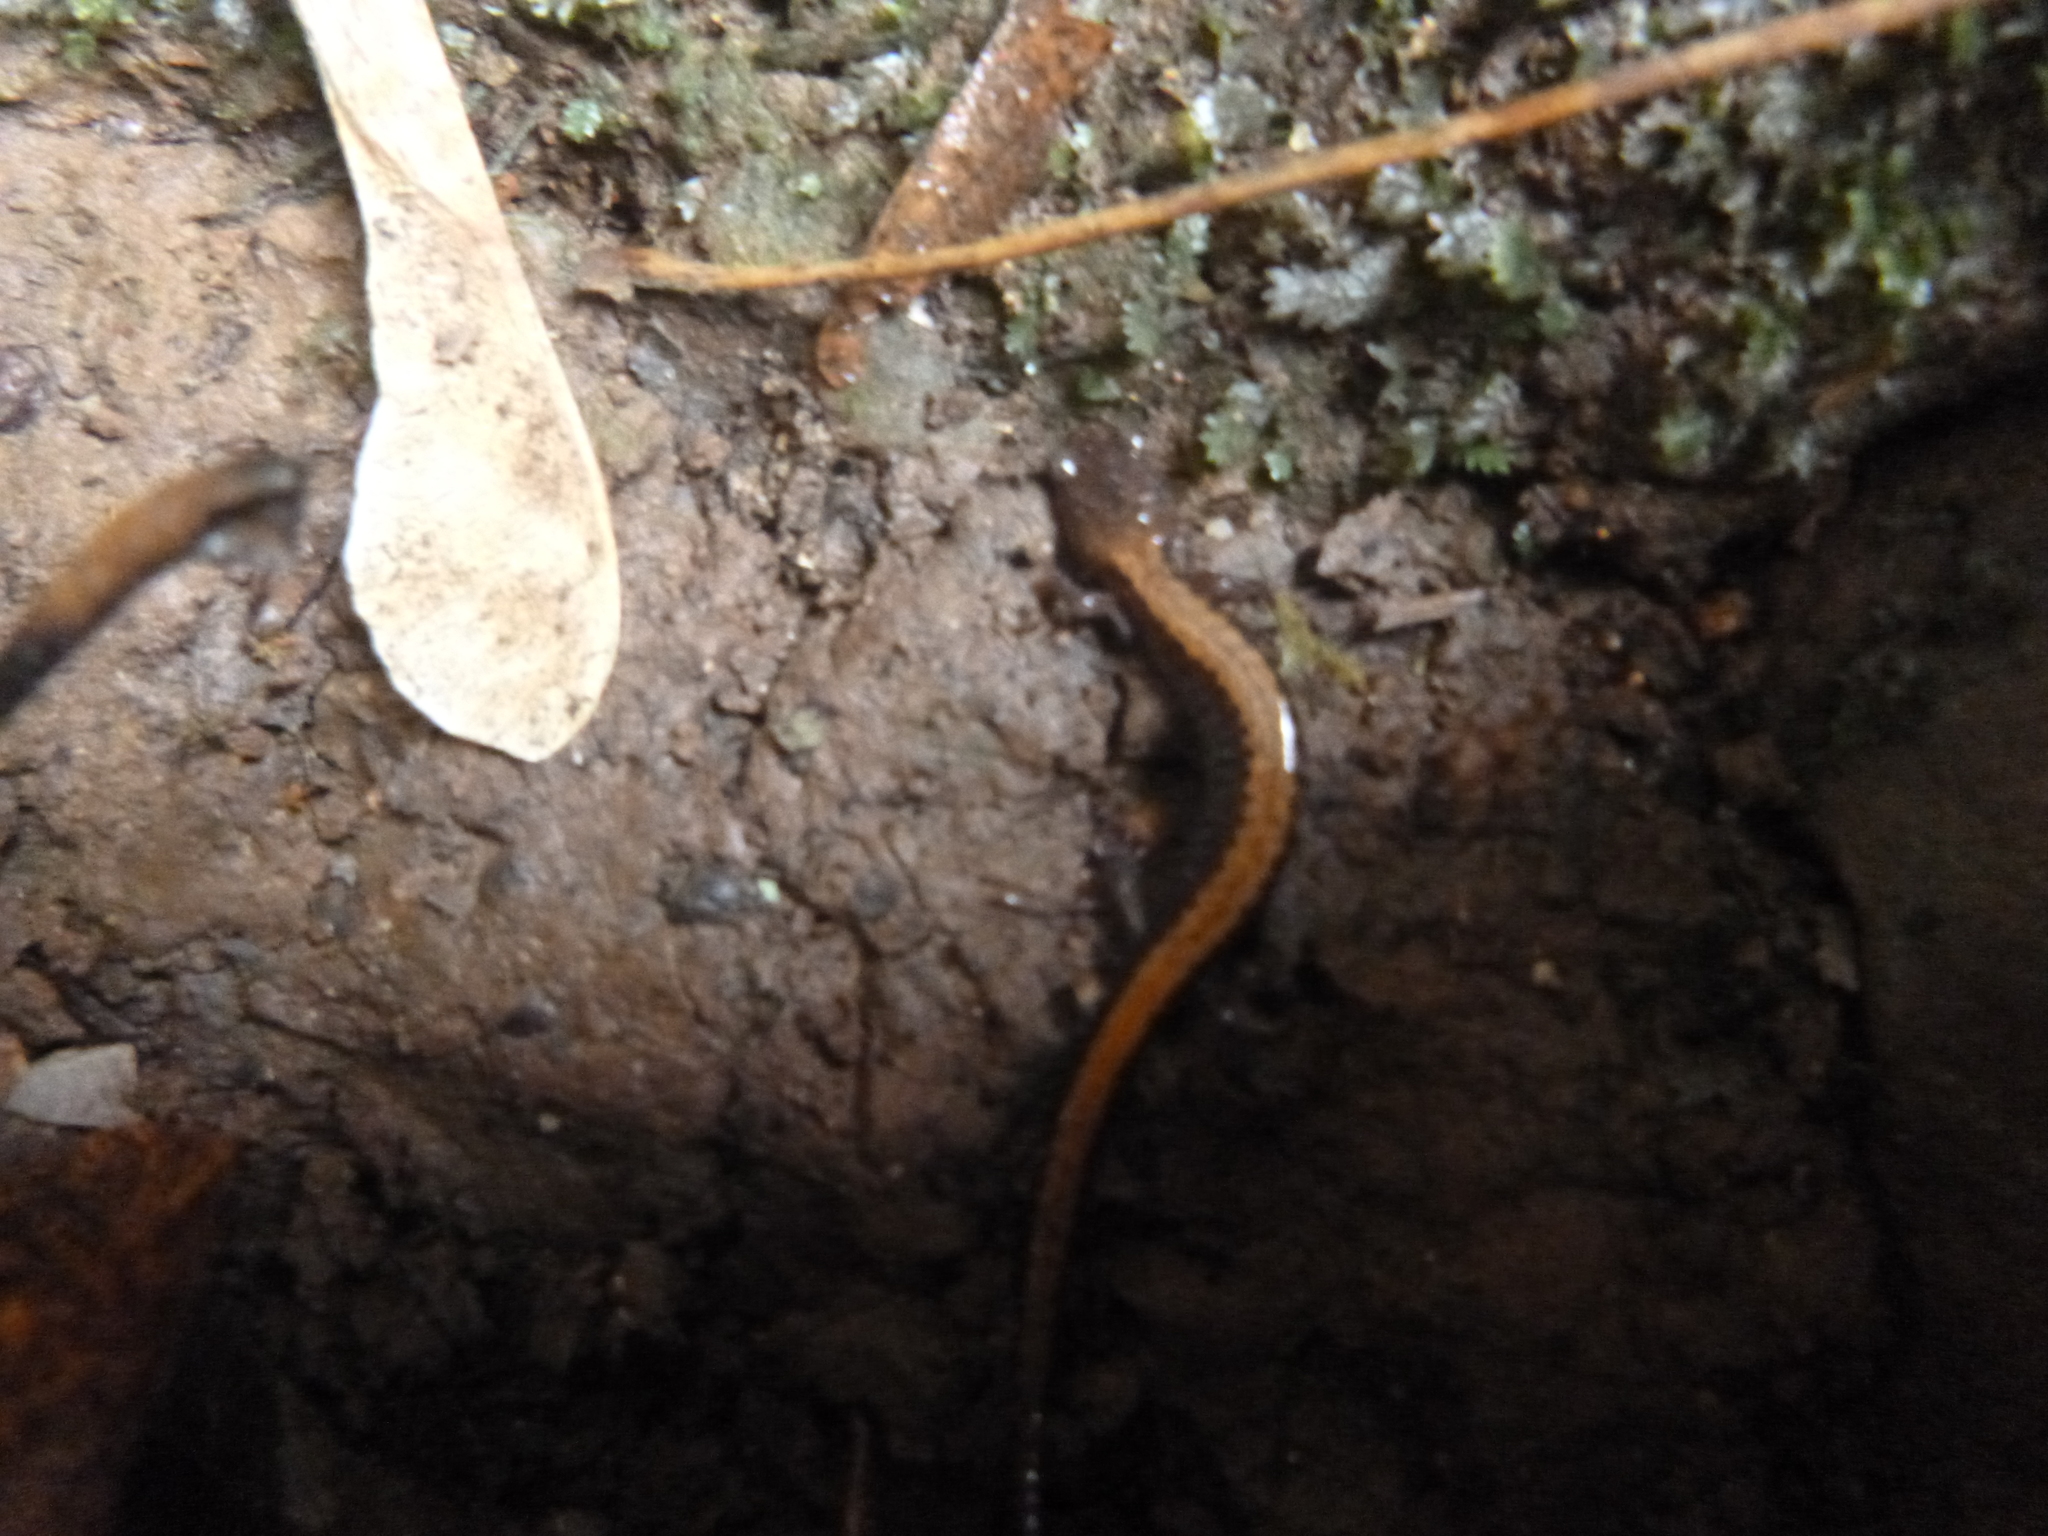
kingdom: Animalia
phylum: Chordata
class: Amphibia
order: Caudata
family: Plethodontidae
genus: Plethodon
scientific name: Plethodon cinereus
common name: Redback salamander
